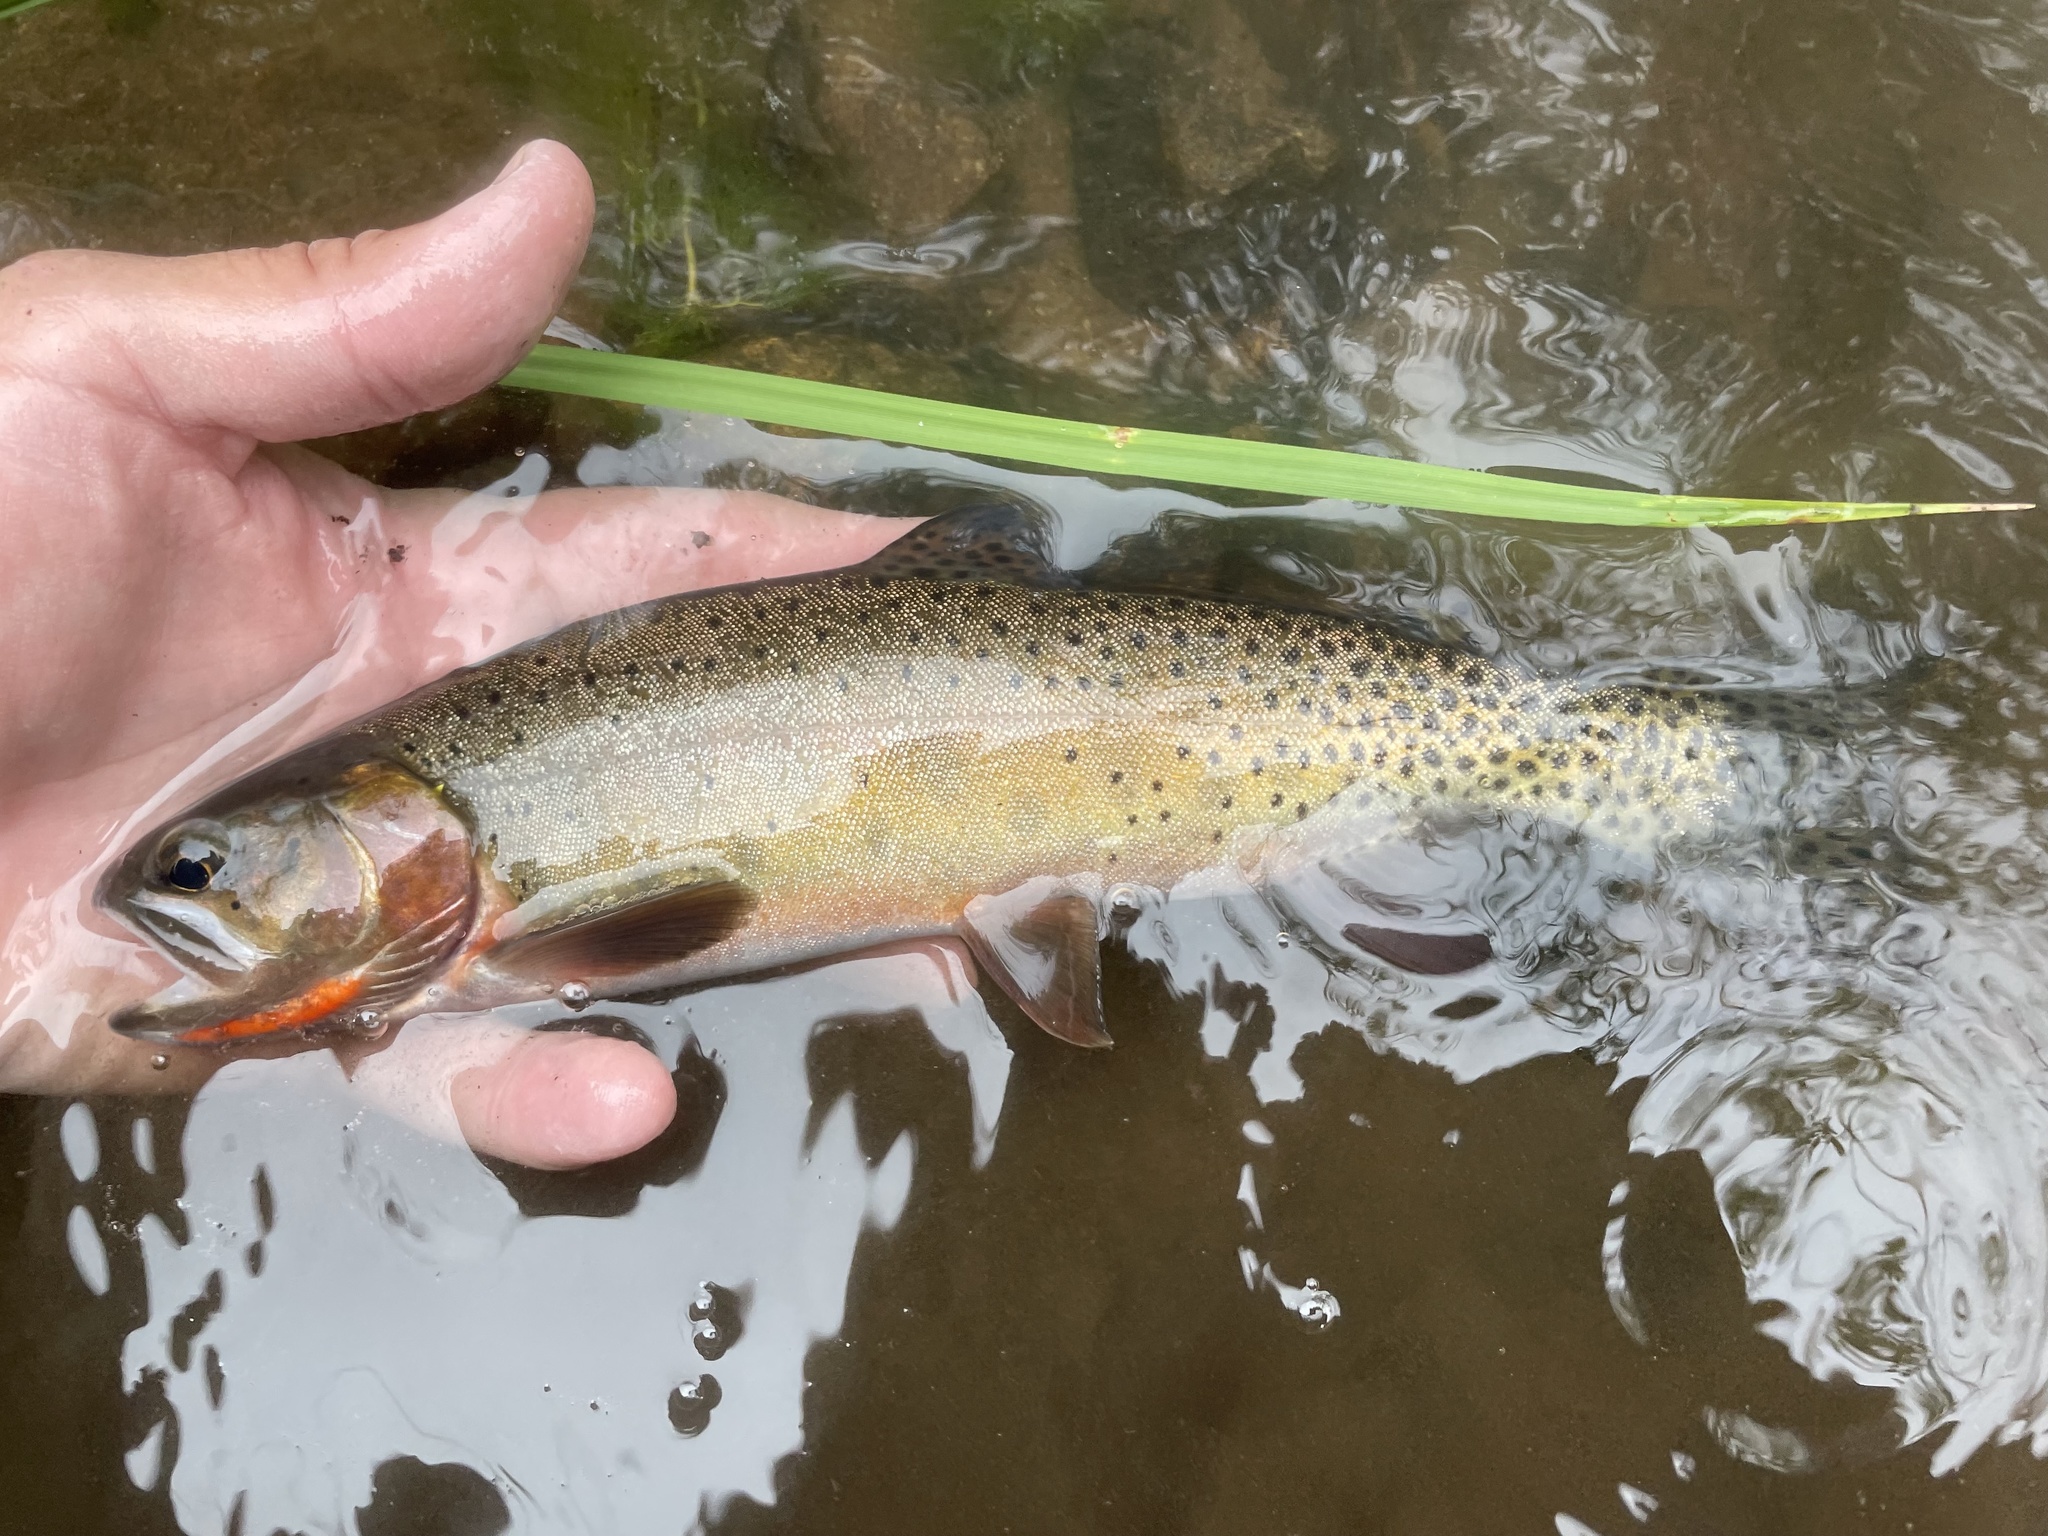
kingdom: Animalia
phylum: Chordata
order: Salmoniformes
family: Salmonidae
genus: Oncorhynchus
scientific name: Oncorhynchus virginalis
